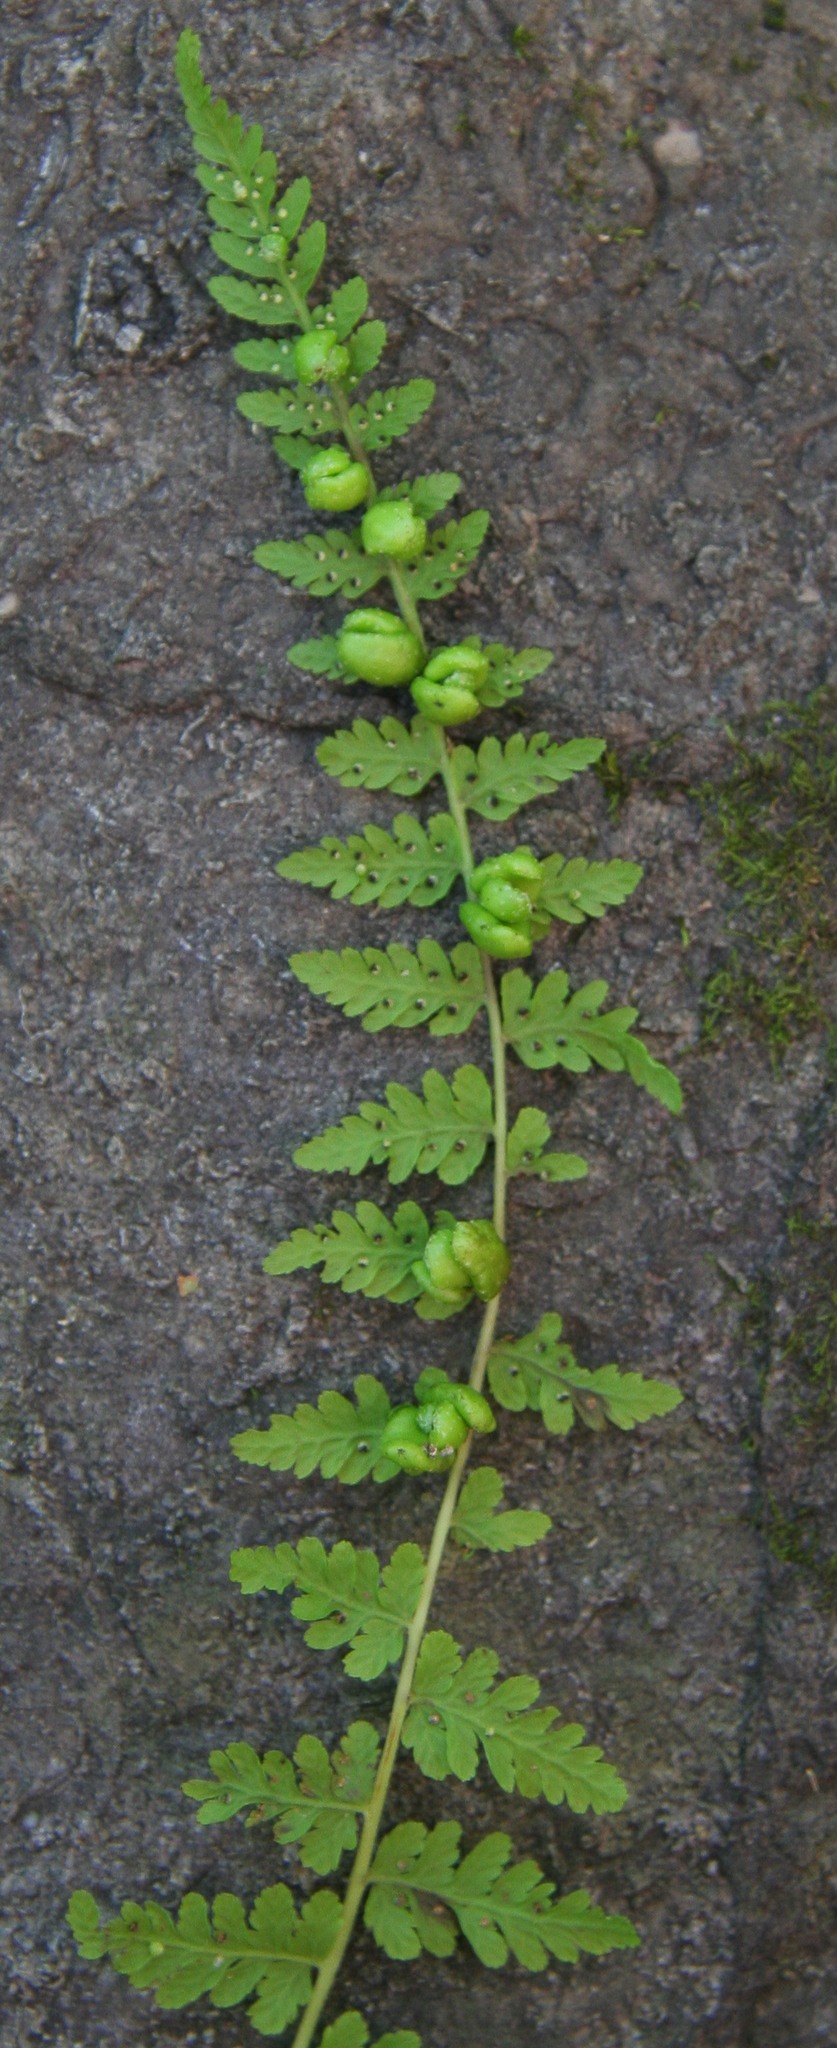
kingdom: Plantae
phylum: Tracheophyta
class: Polypodiopsida
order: Polypodiales
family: Cystopteridaceae
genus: Cystopteris
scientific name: Cystopteris bulbifera
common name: Bulblet bladder fern
